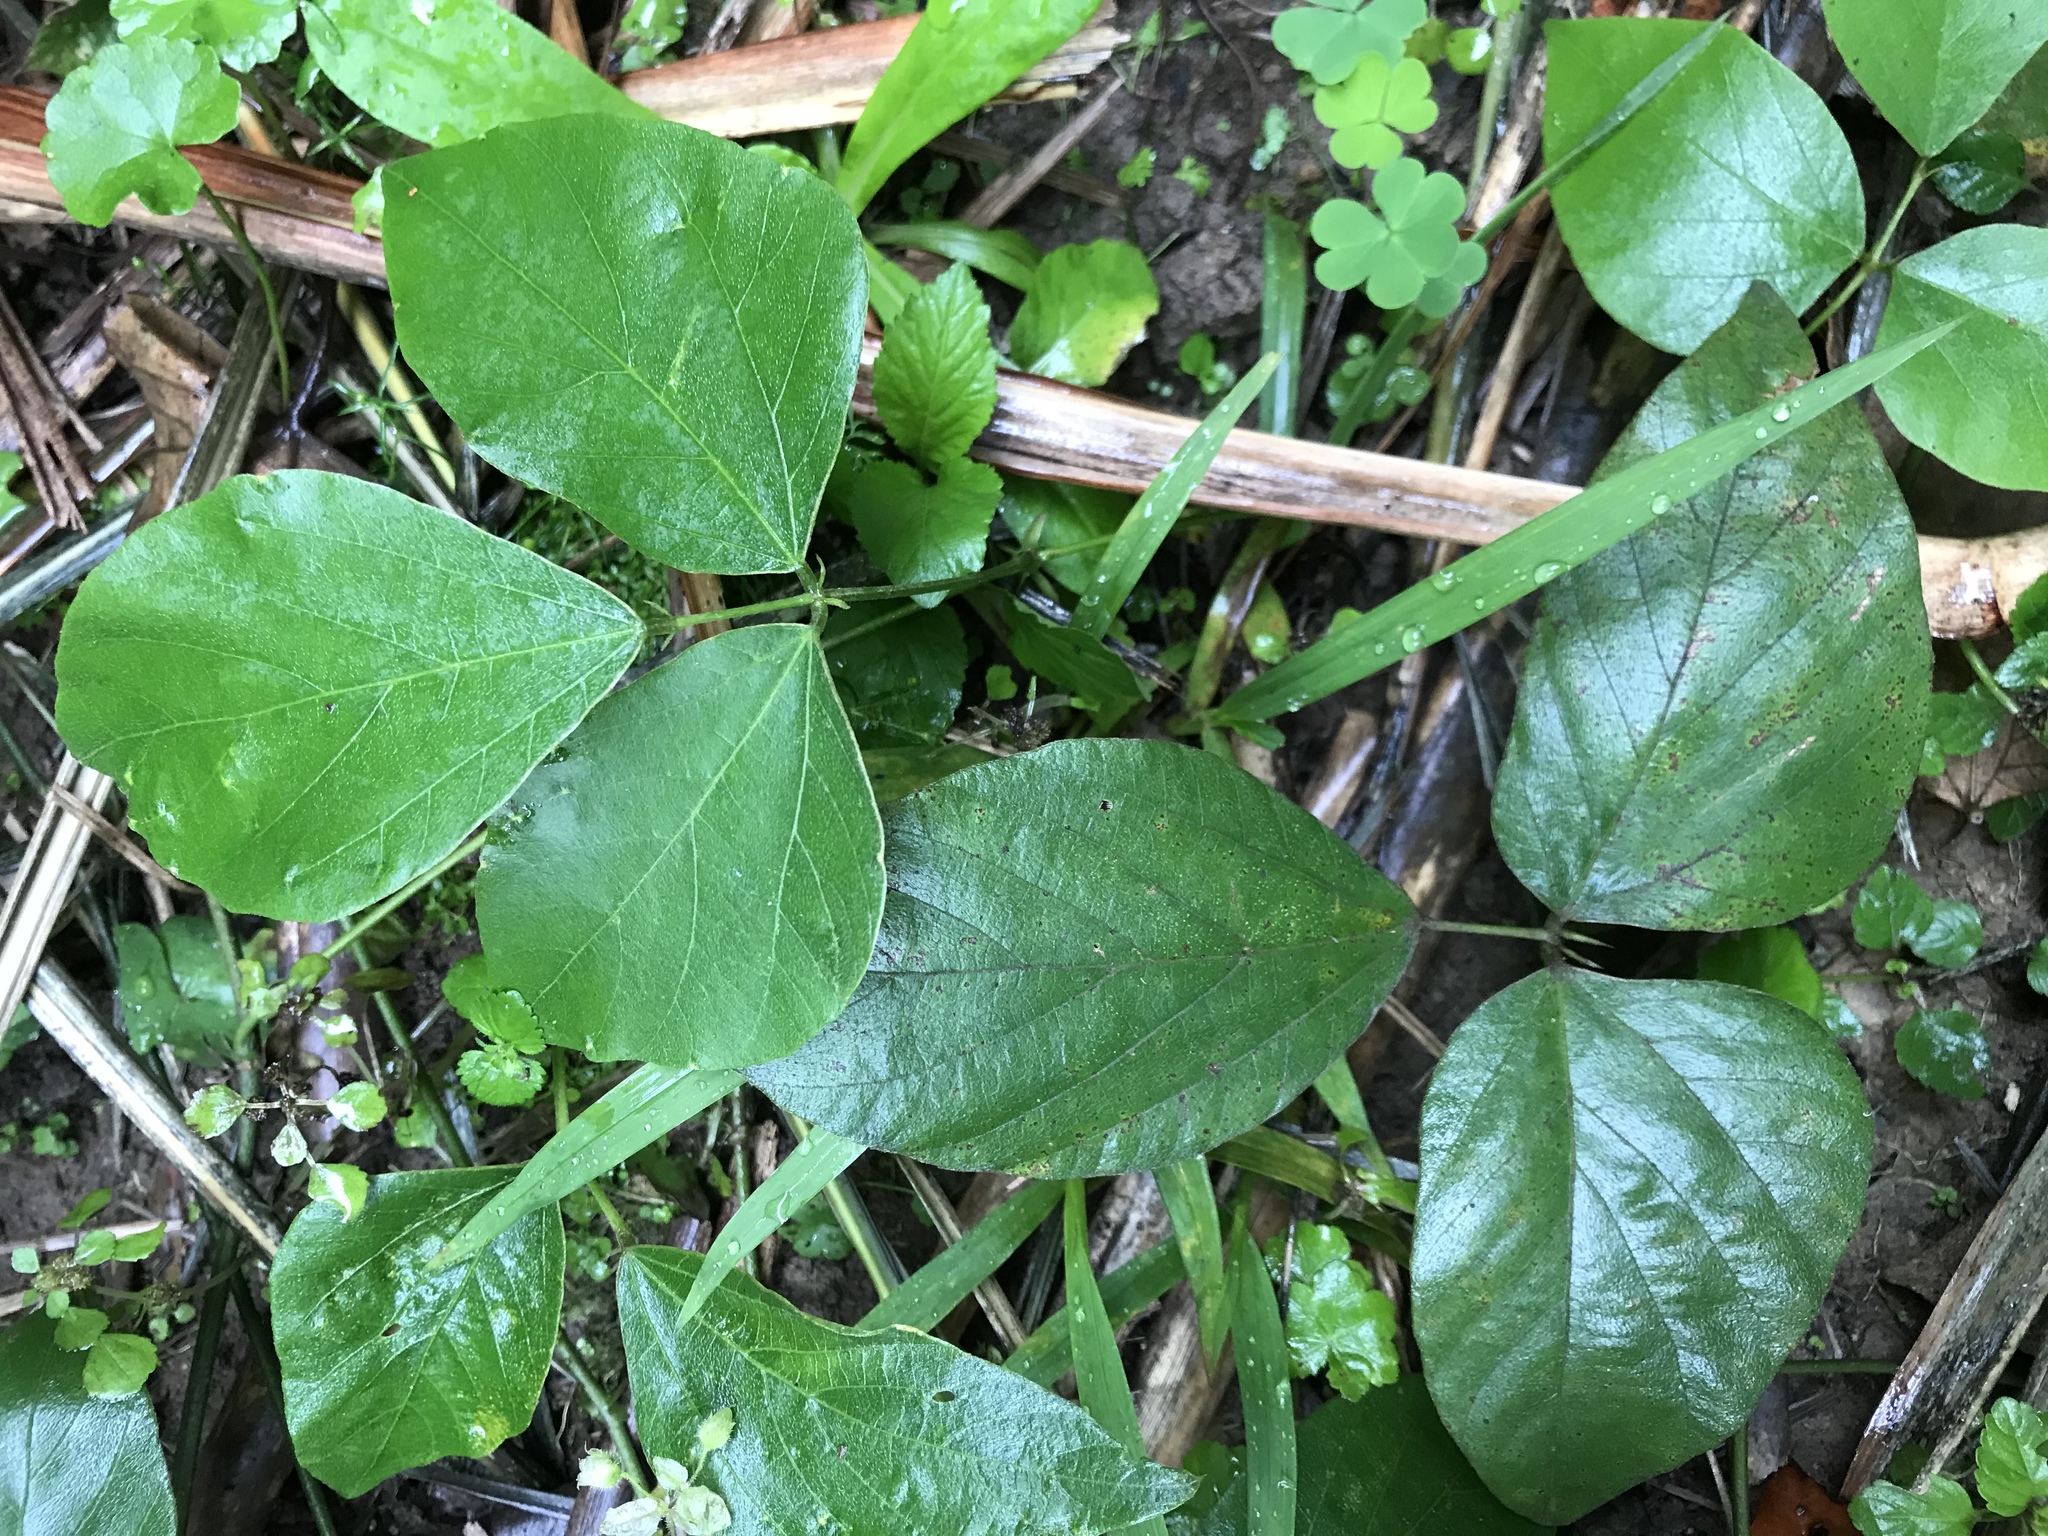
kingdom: Plantae
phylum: Tracheophyta
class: Magnoliopsida
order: Fabales
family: Fabaceae
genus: Pueraria
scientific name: Pueraria montana
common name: Kudzu
